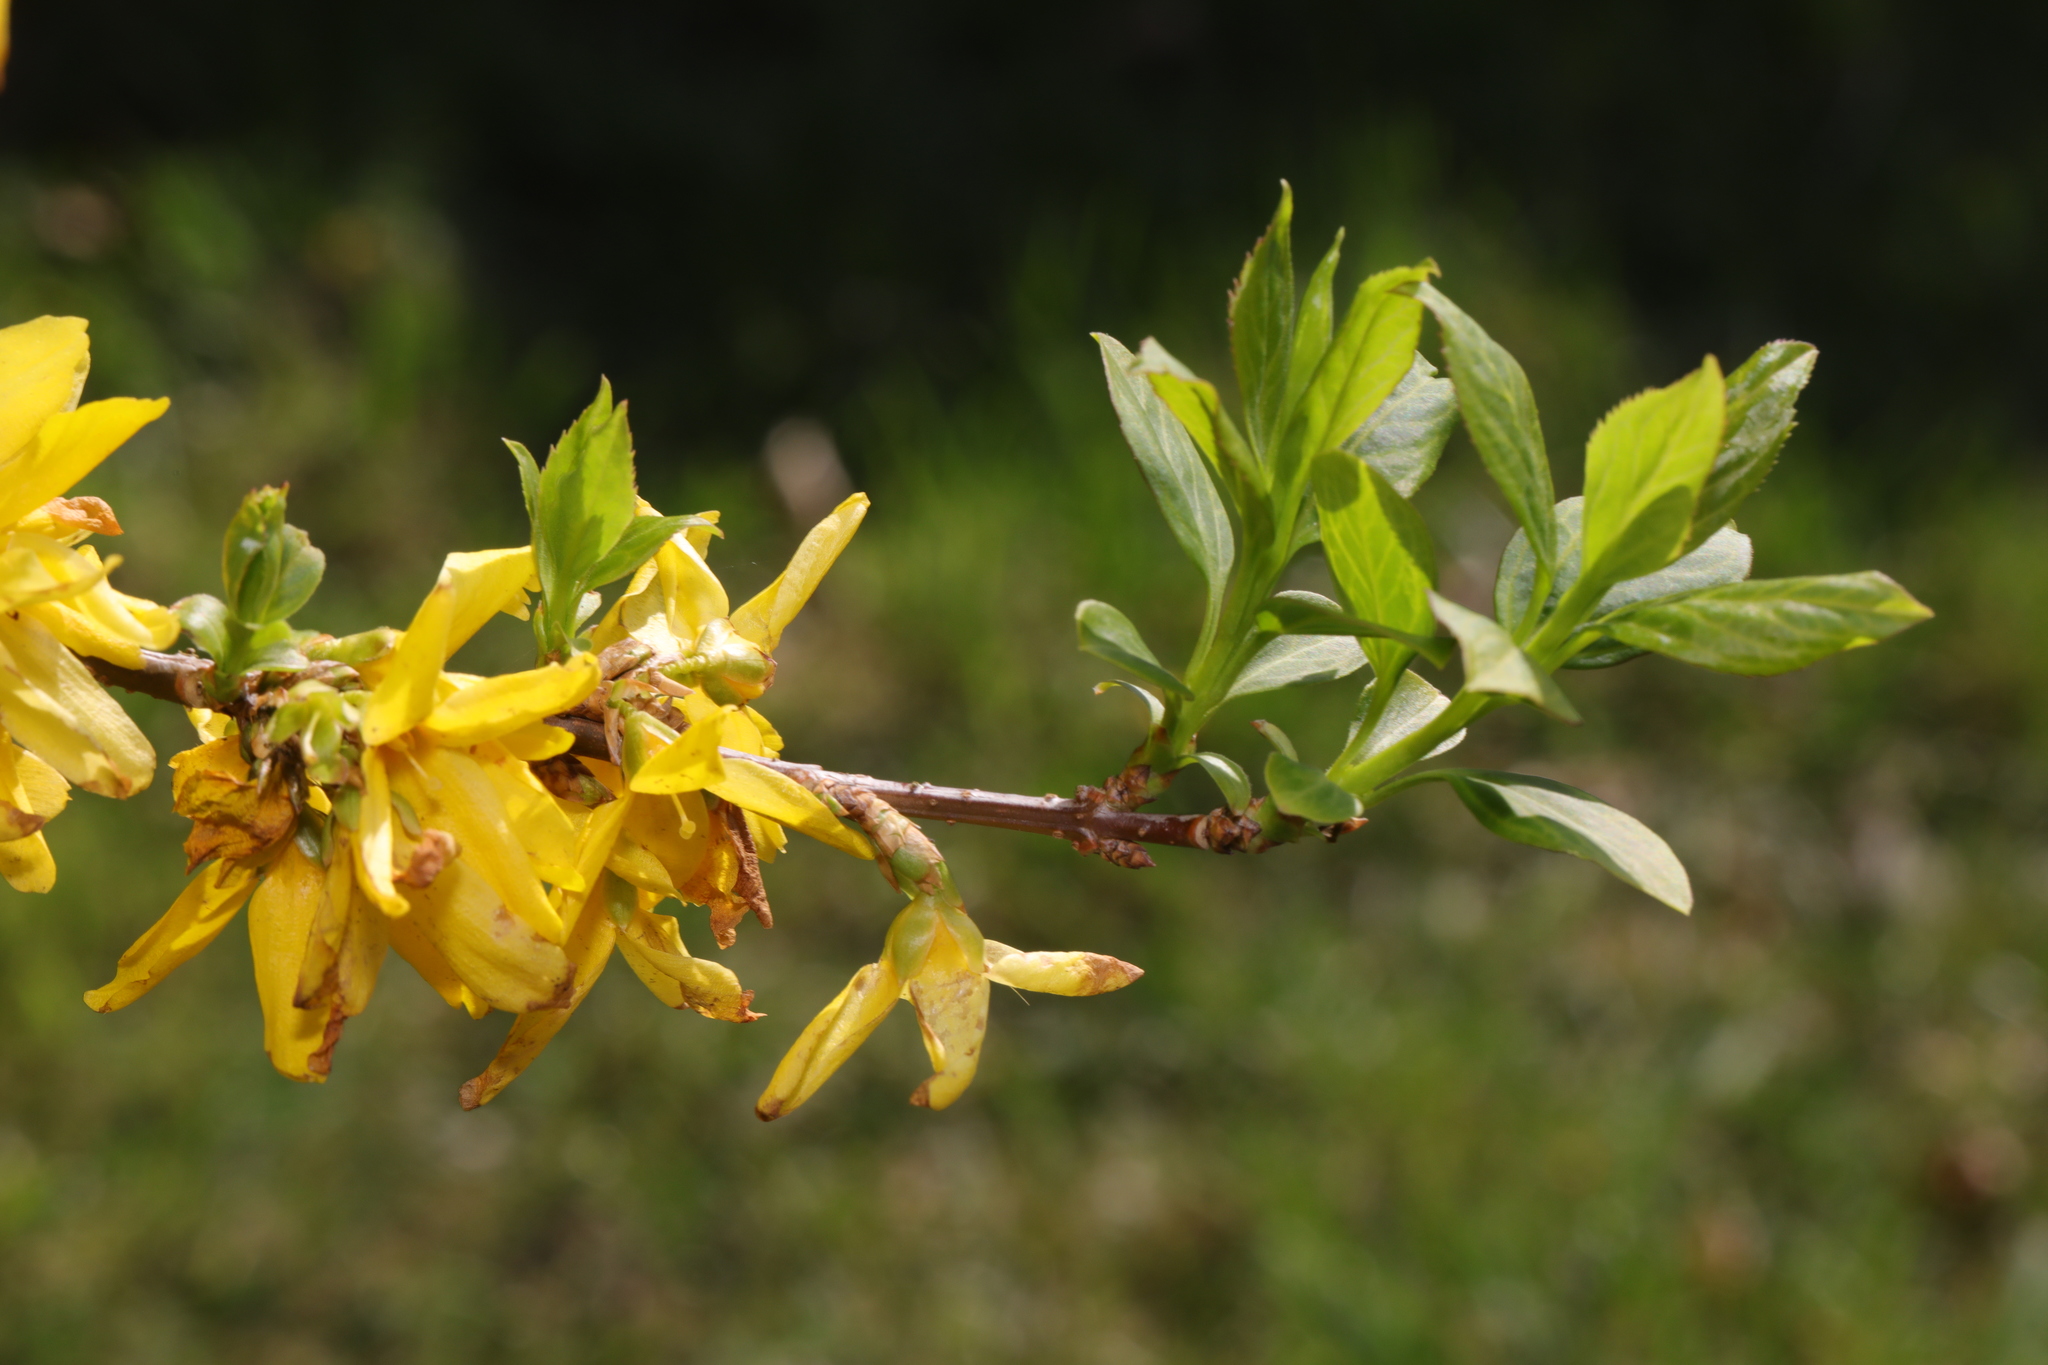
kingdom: Plantae
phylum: Tracheophyta
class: Magnoliopsida
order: Lamiales
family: Oleaceae
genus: Forsythia
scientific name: Forsythia intermedia
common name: Forsythia
